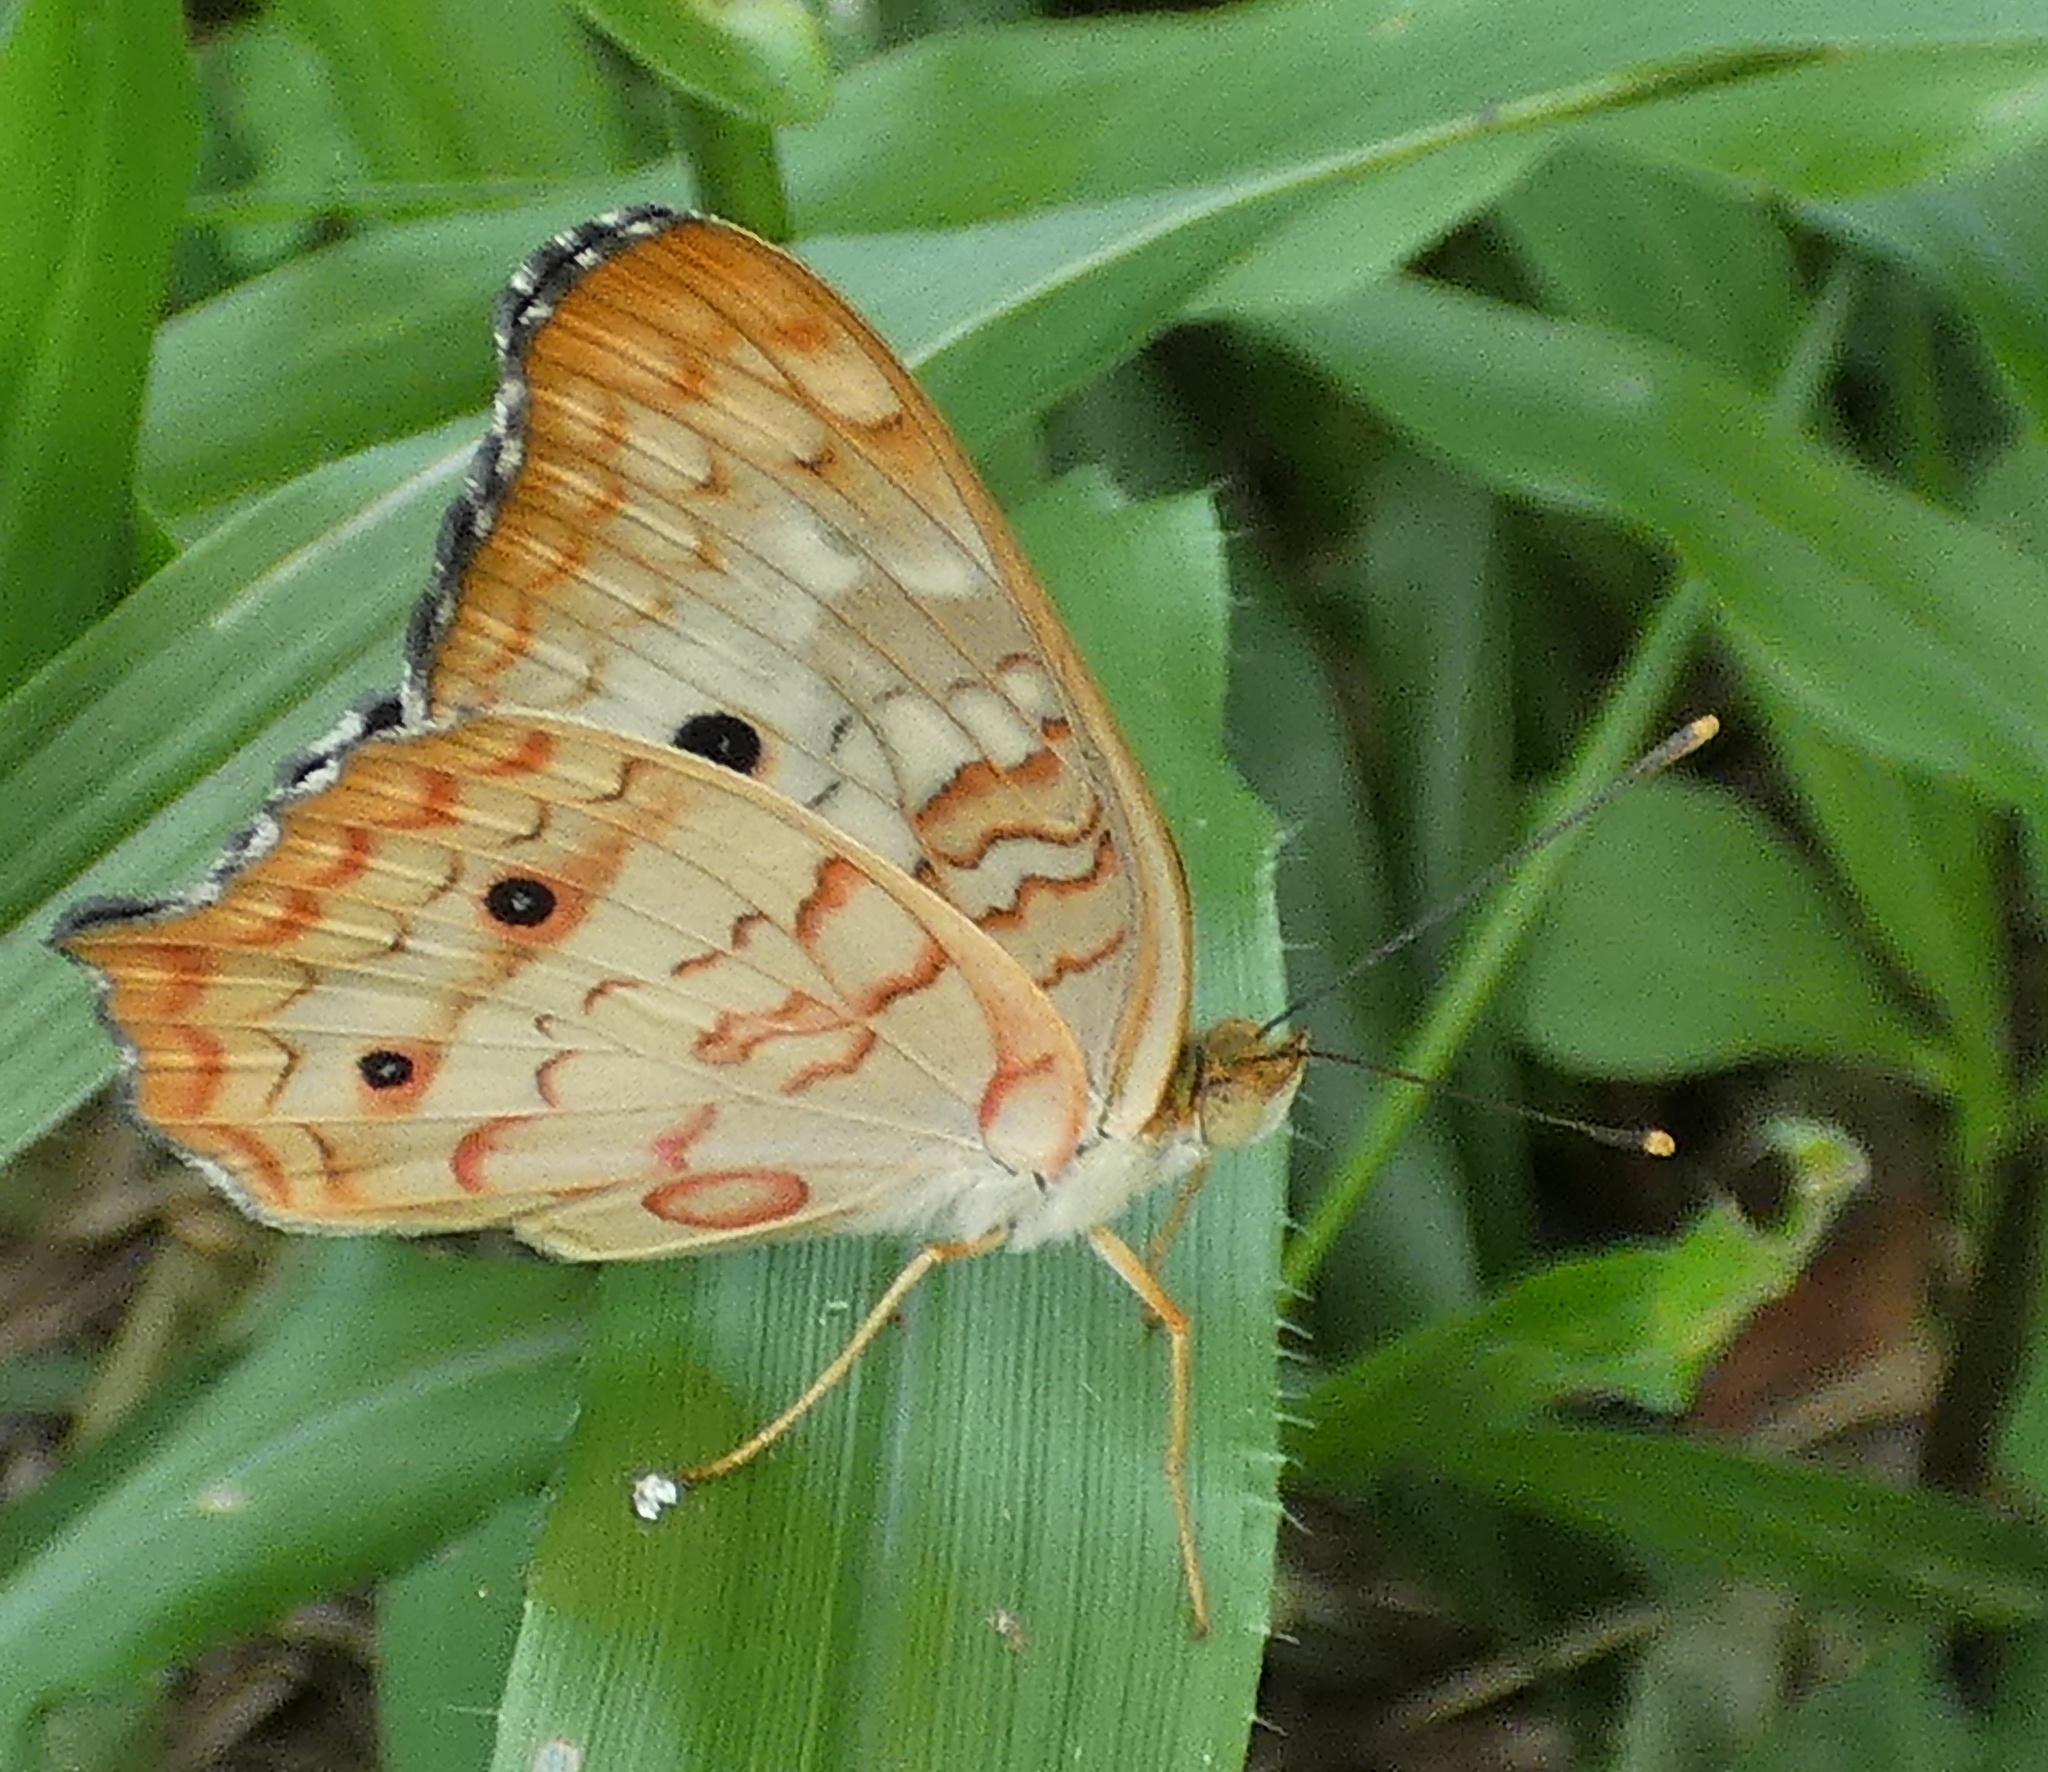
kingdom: Animalia
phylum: Arthropoda
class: Insecta
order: Lepidoptera
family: Nymphalidae
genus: Anartia
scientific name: Anartia jatrophae
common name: White peacock
